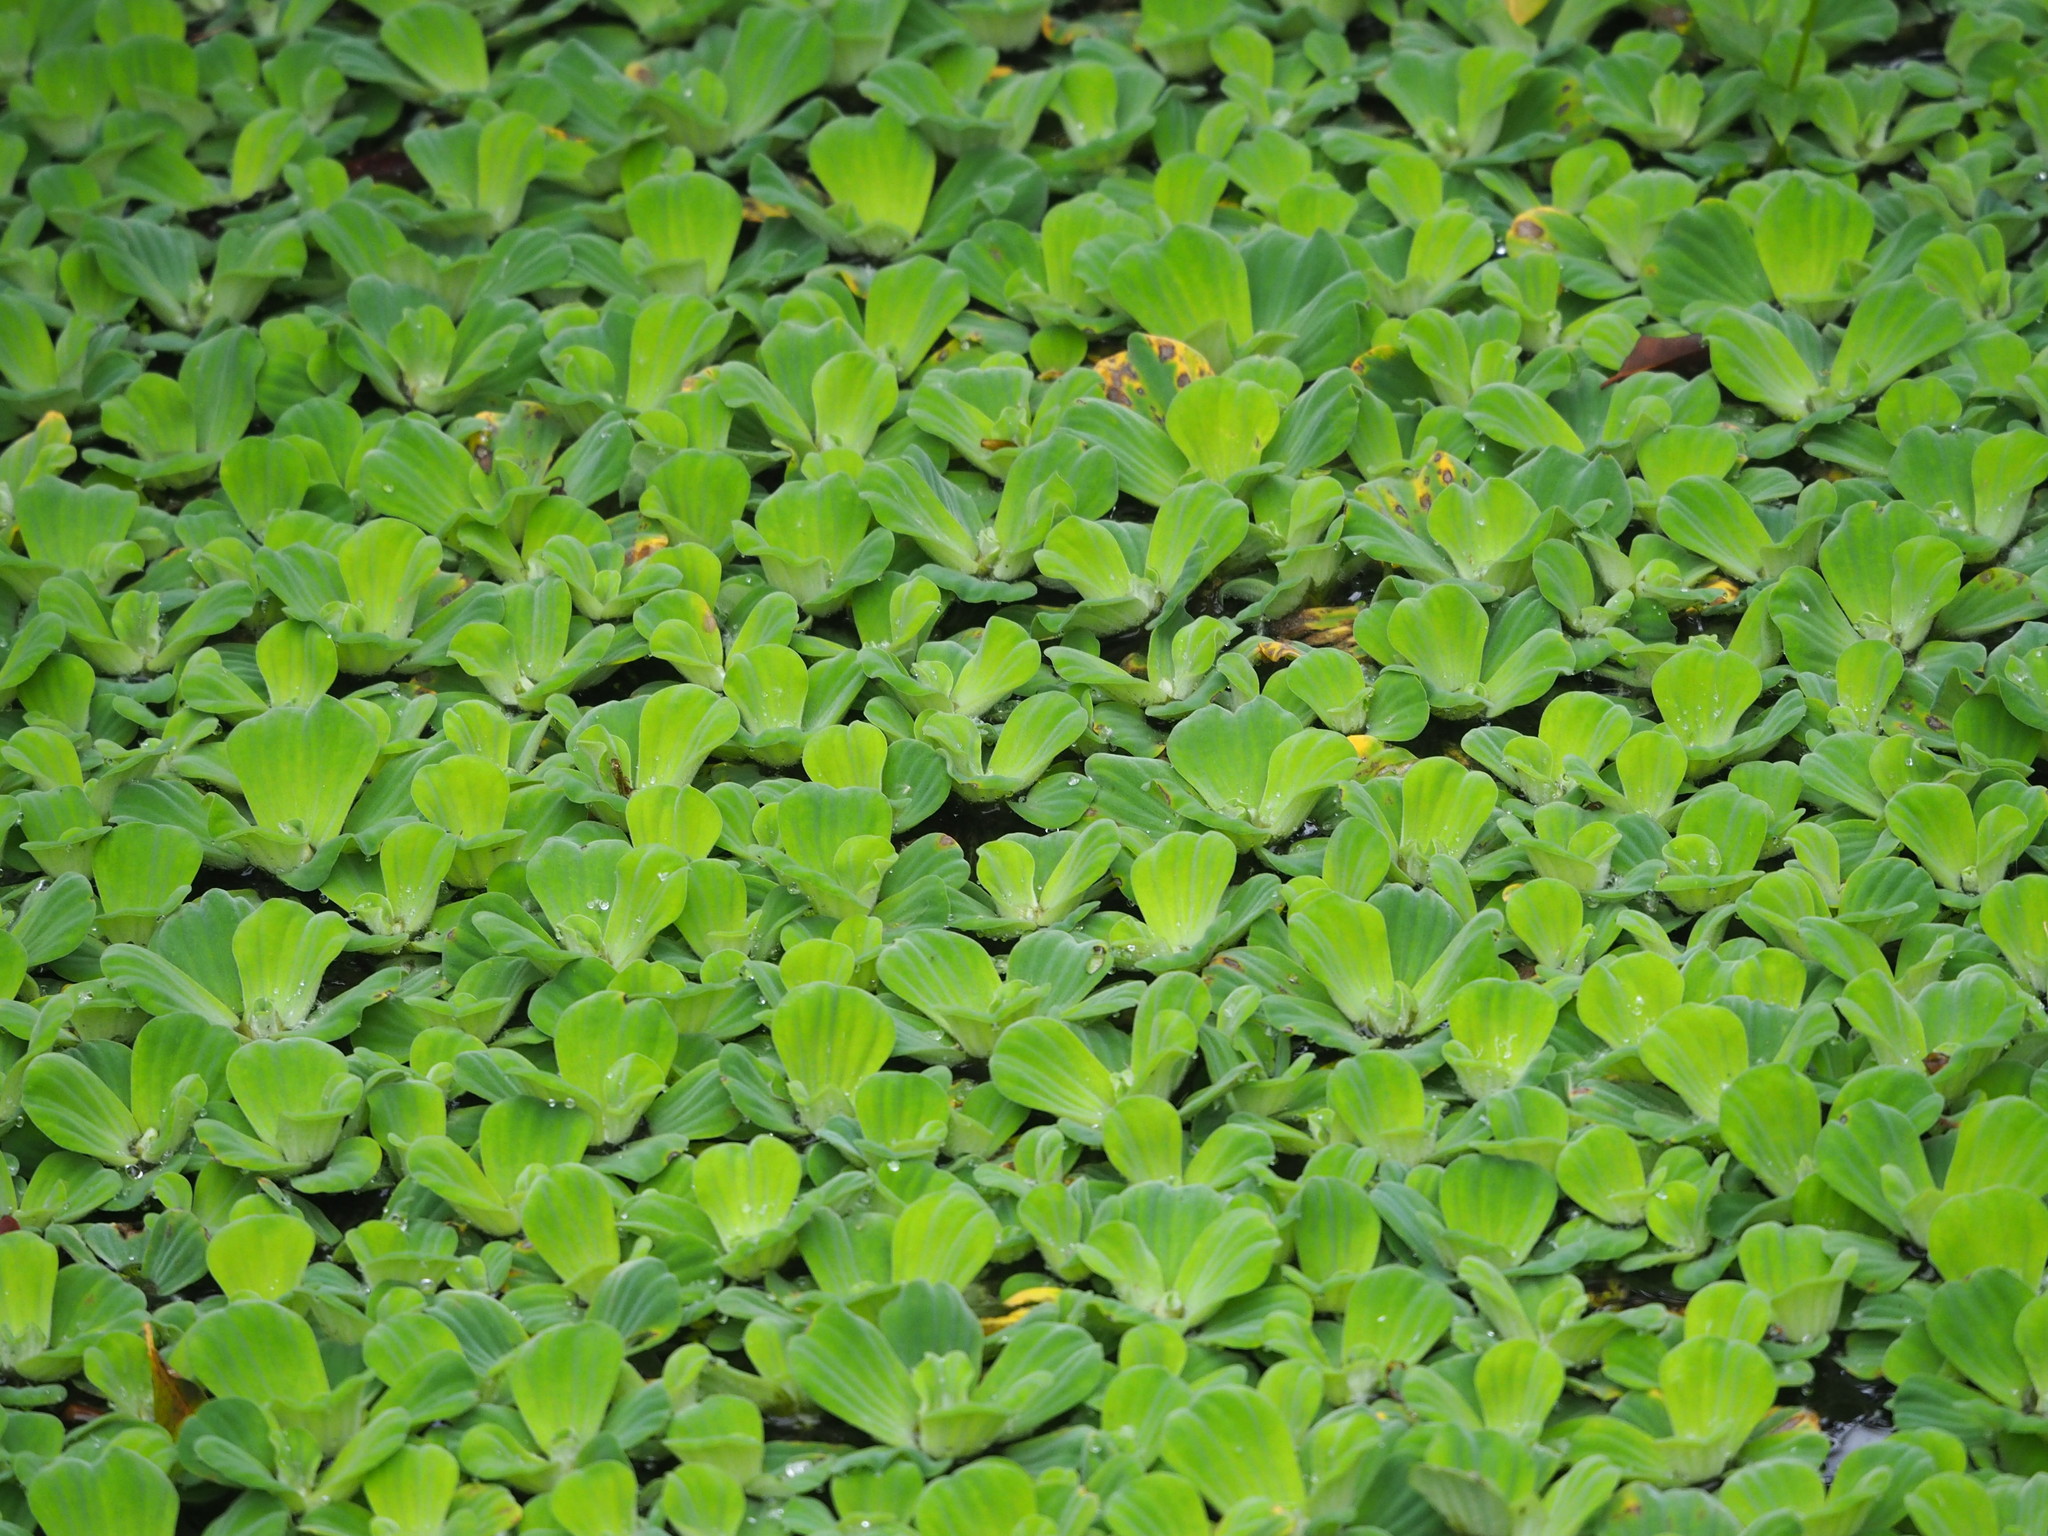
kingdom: Plantae
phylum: Tracheophyta
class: Liliopsida
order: Alismatales
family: Araceae
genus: Pistia
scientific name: Pistia stratiotes
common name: Water lettuce
